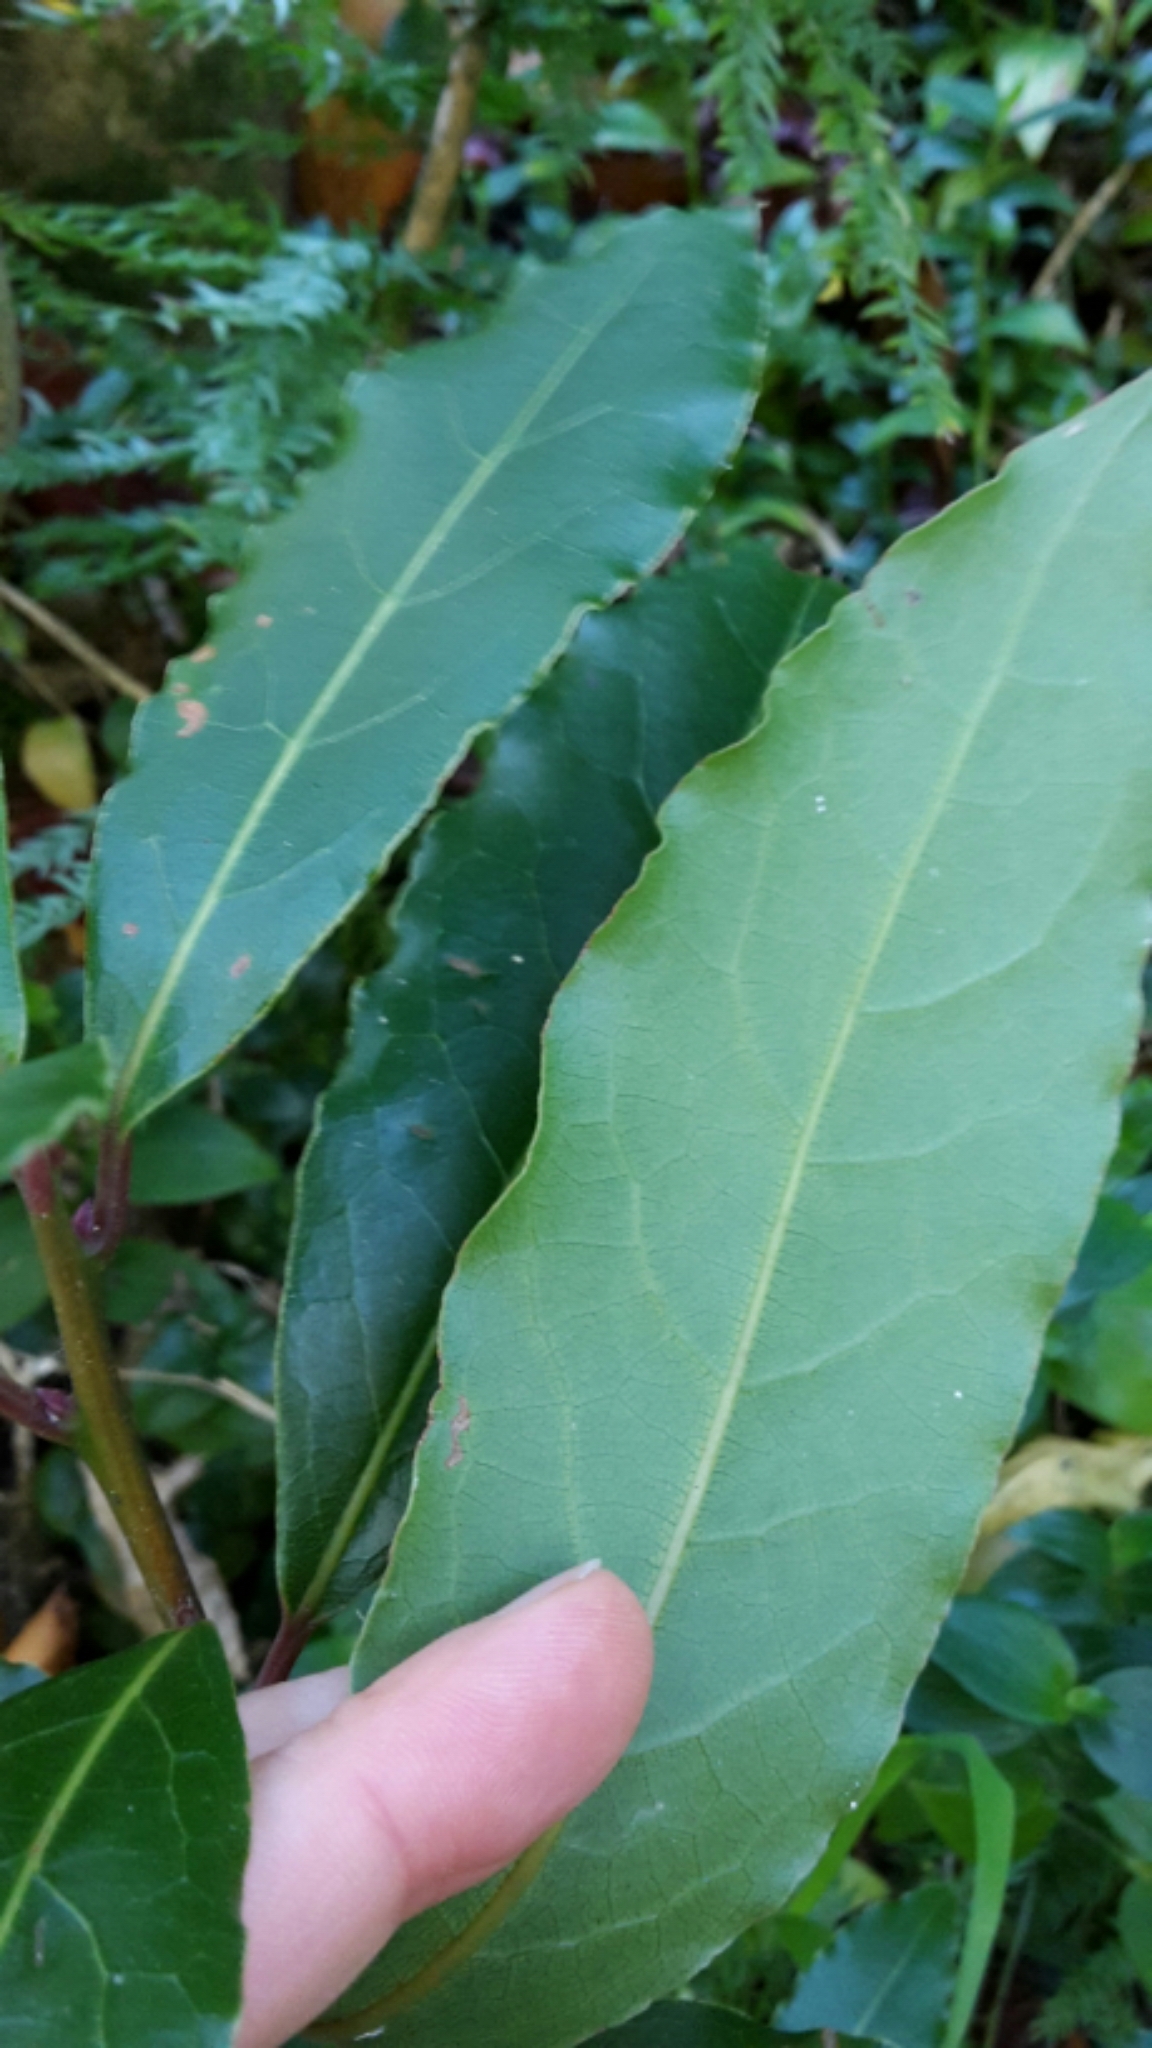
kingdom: Plantae
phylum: Tracheophyta
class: Magnoliopsida
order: Laurales
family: Lauraceae
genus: Laurus
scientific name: Laurus nobilis
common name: Bay
